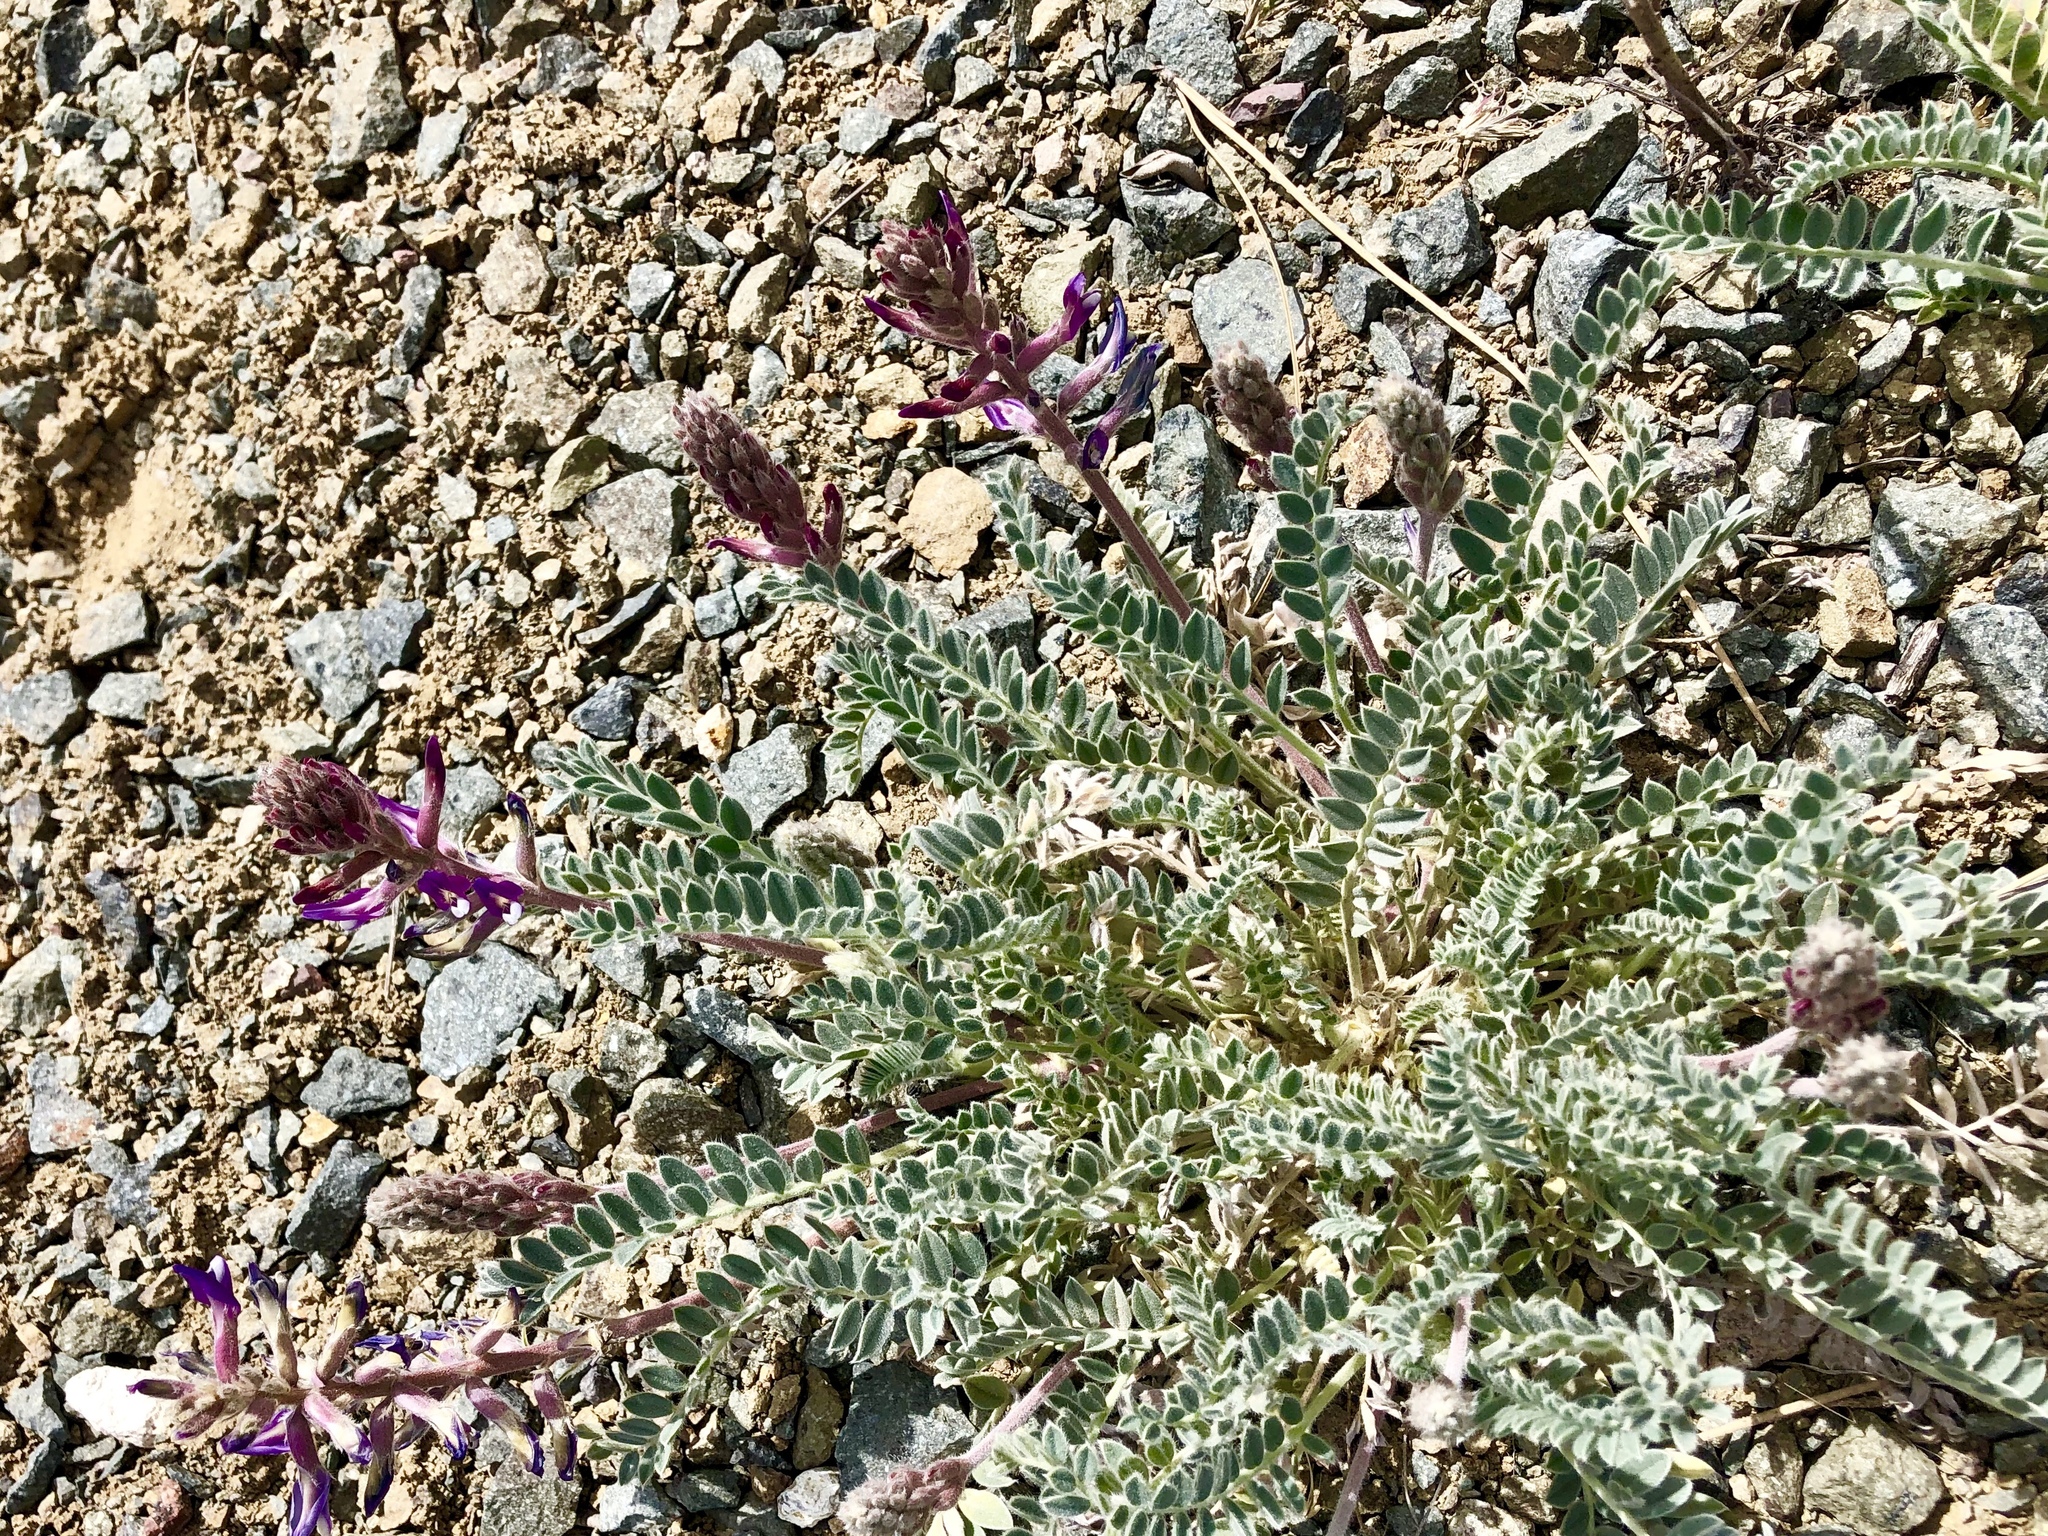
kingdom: Plantae
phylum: Tracheophyta
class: Magnoliopsida
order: Fabales
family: Fabaceae
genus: Astragalus
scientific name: Astragalus mollissimus
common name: Woolly locoweed
